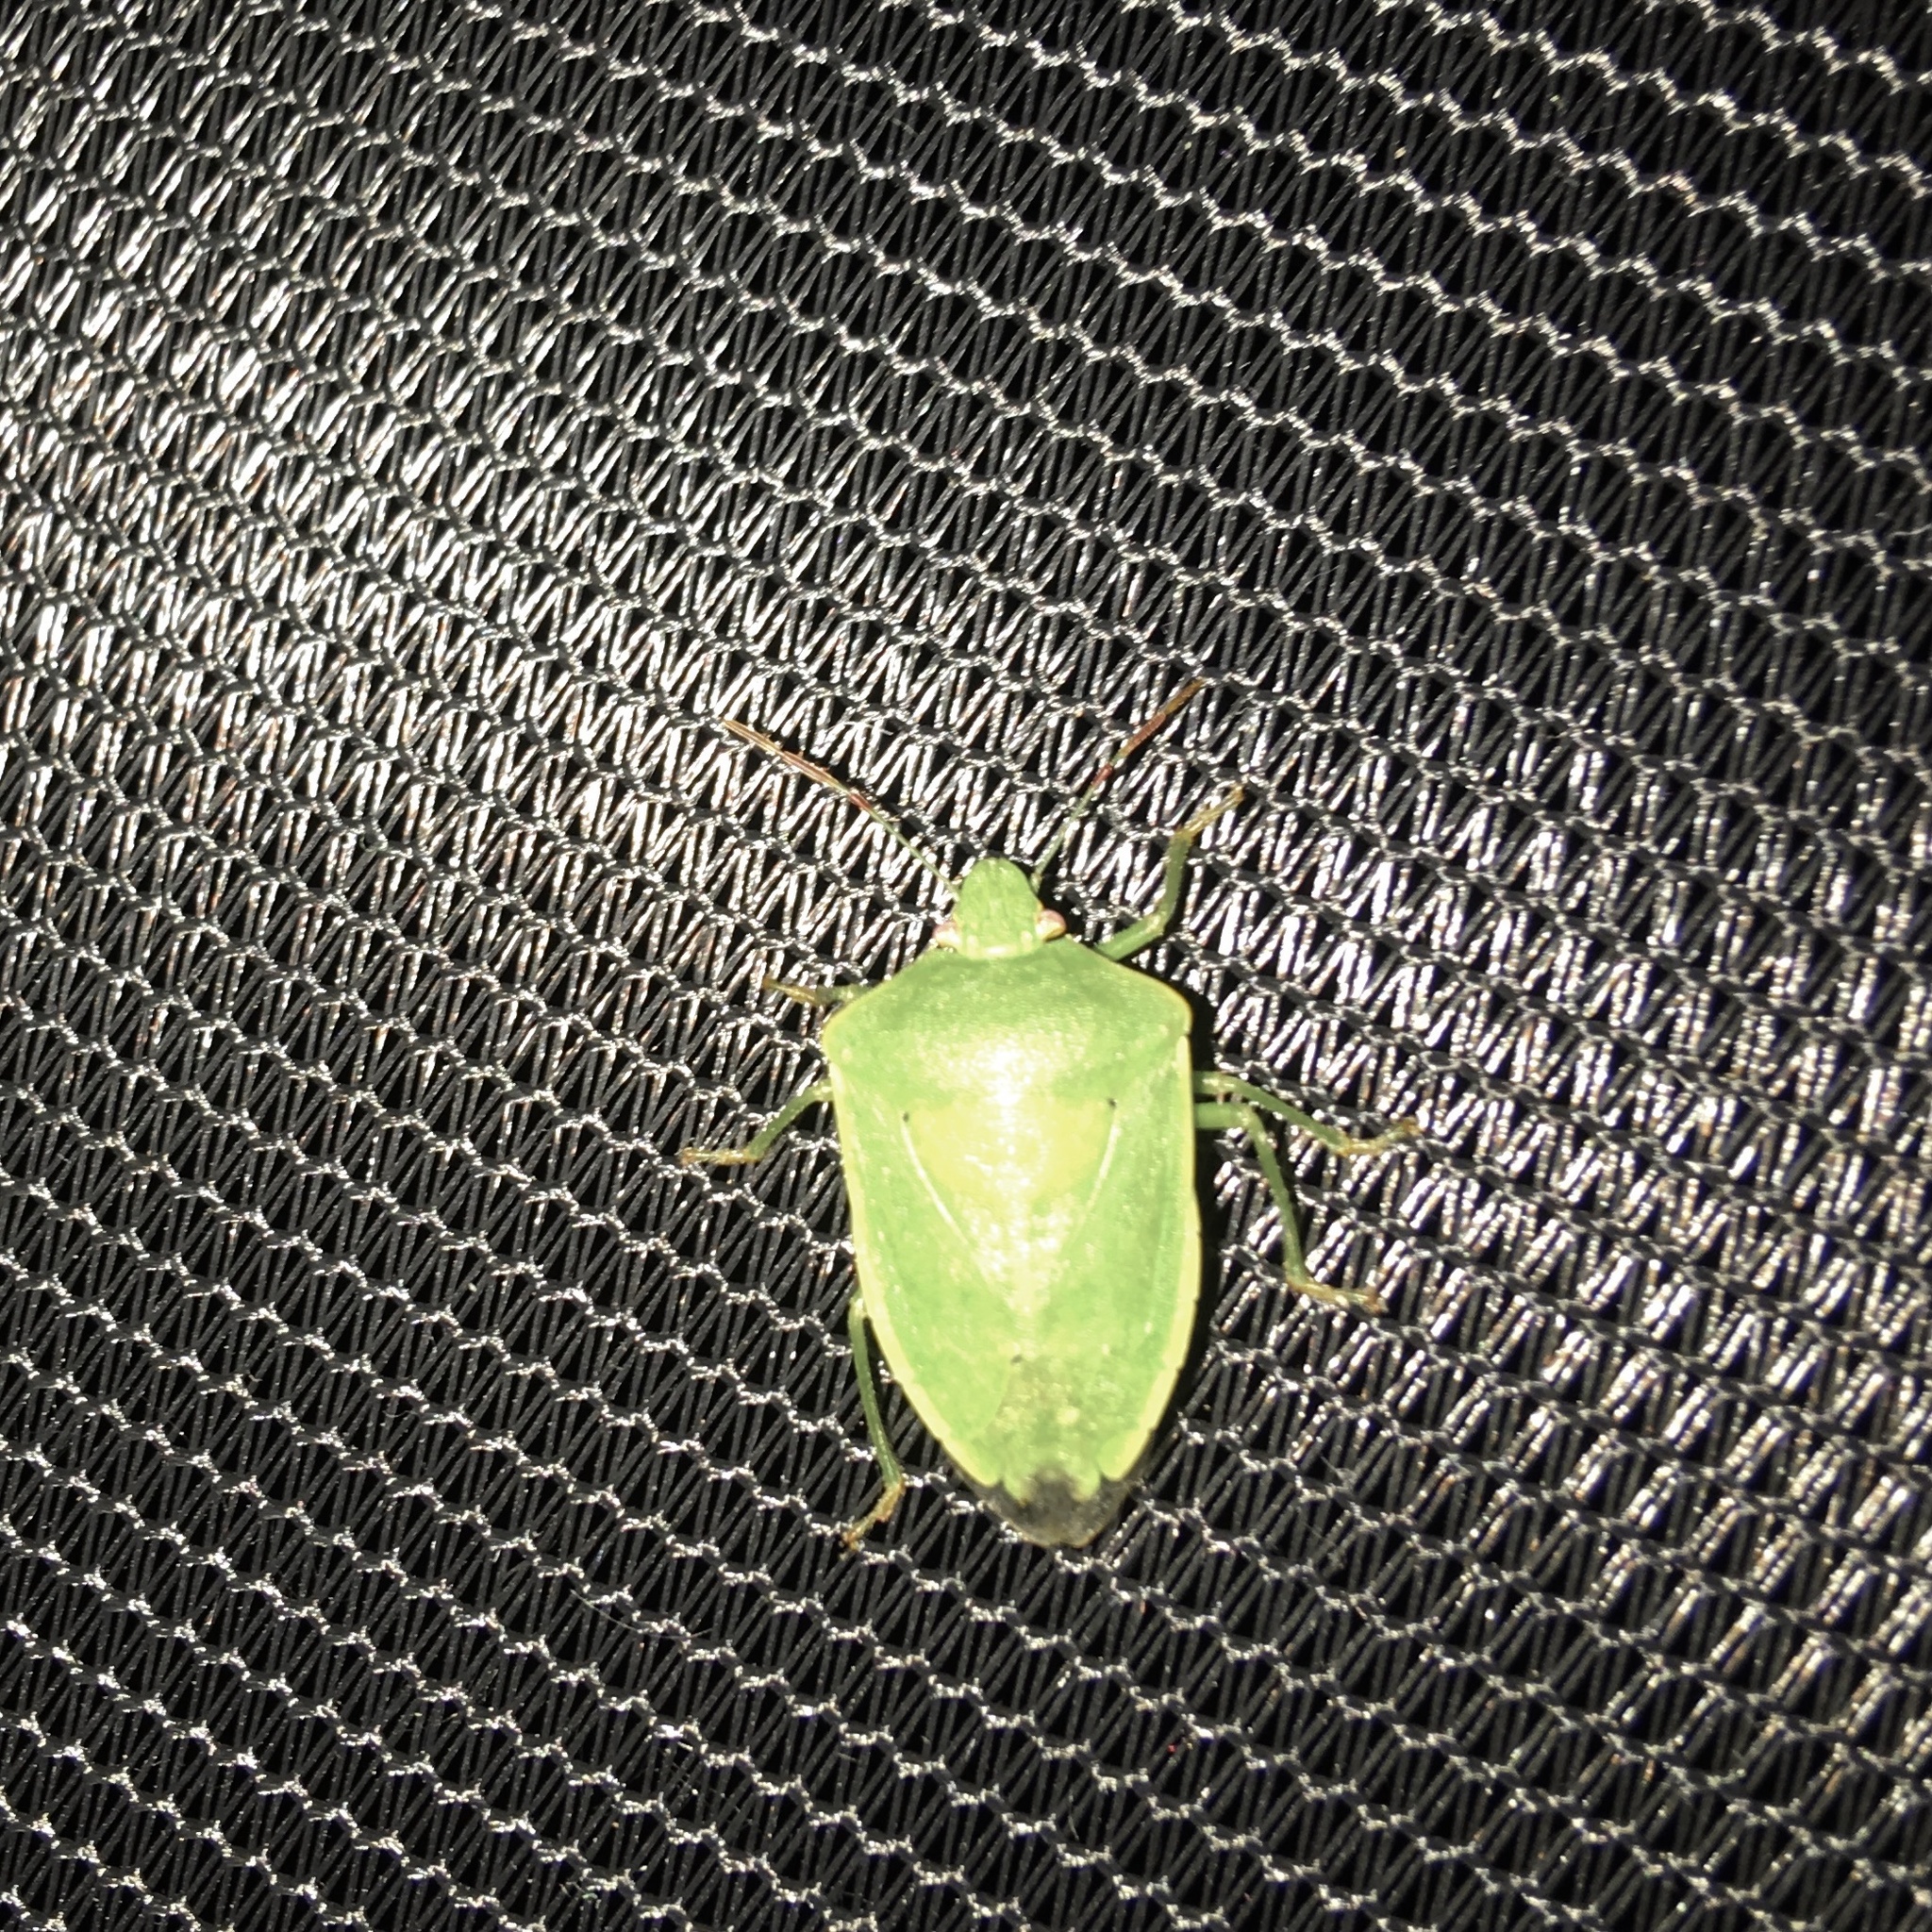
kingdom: Animalia
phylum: Arthropoda
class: Insecta
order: Hemiptera
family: Pentatomidae
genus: Nezara
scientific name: Nezara viridula
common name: Southern green stink bug
